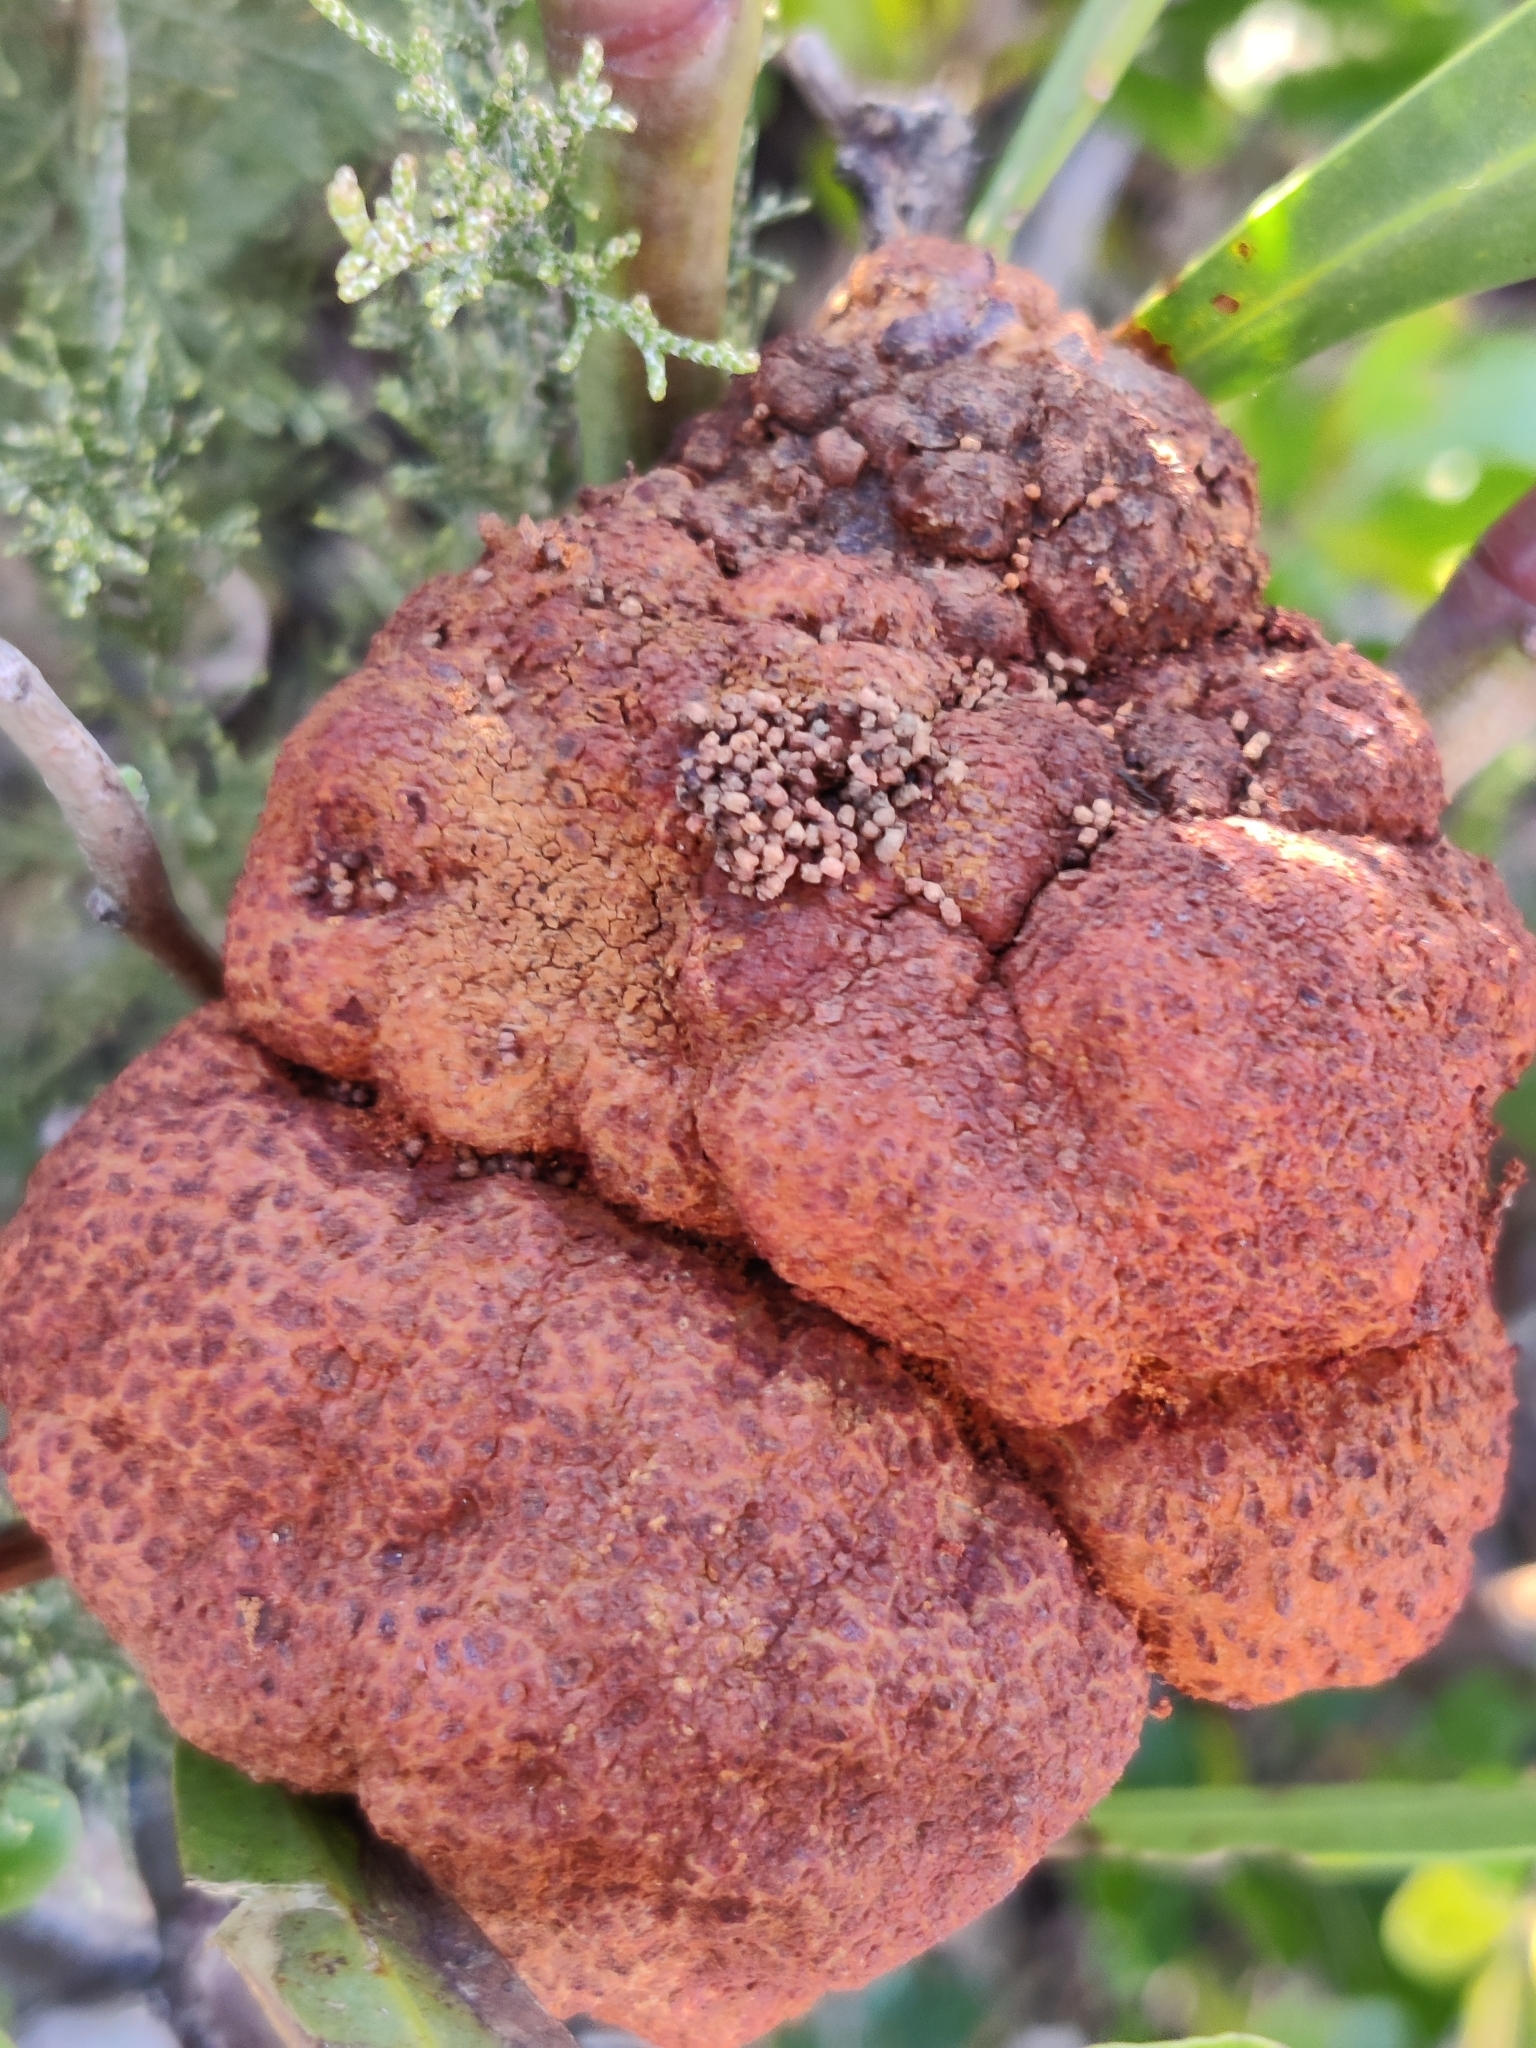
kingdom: Plantae
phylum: Tracheophyta
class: Magnoliopsida
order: Fabales
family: Fabaceae
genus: Acacia
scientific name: Acacia saligna
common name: Orange wattle
